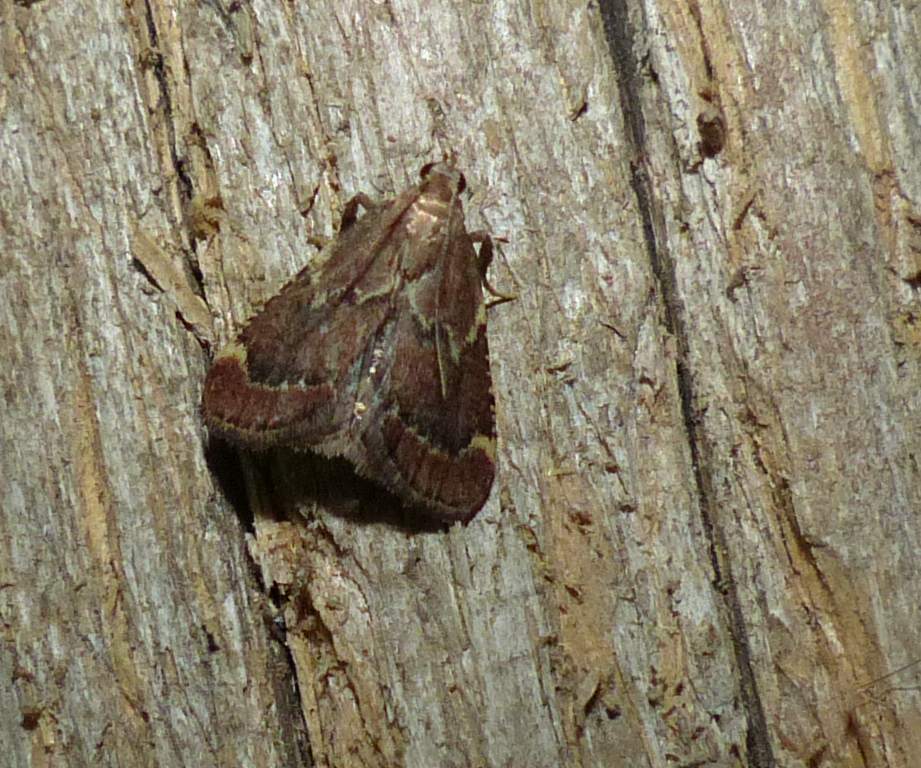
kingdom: Animalia
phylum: Arthropoda
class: Insecta
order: Lepidoptera
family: Pyralidae
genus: Hypsopygia
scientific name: Hypsopygia intermedialis
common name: Red-shawled moth
